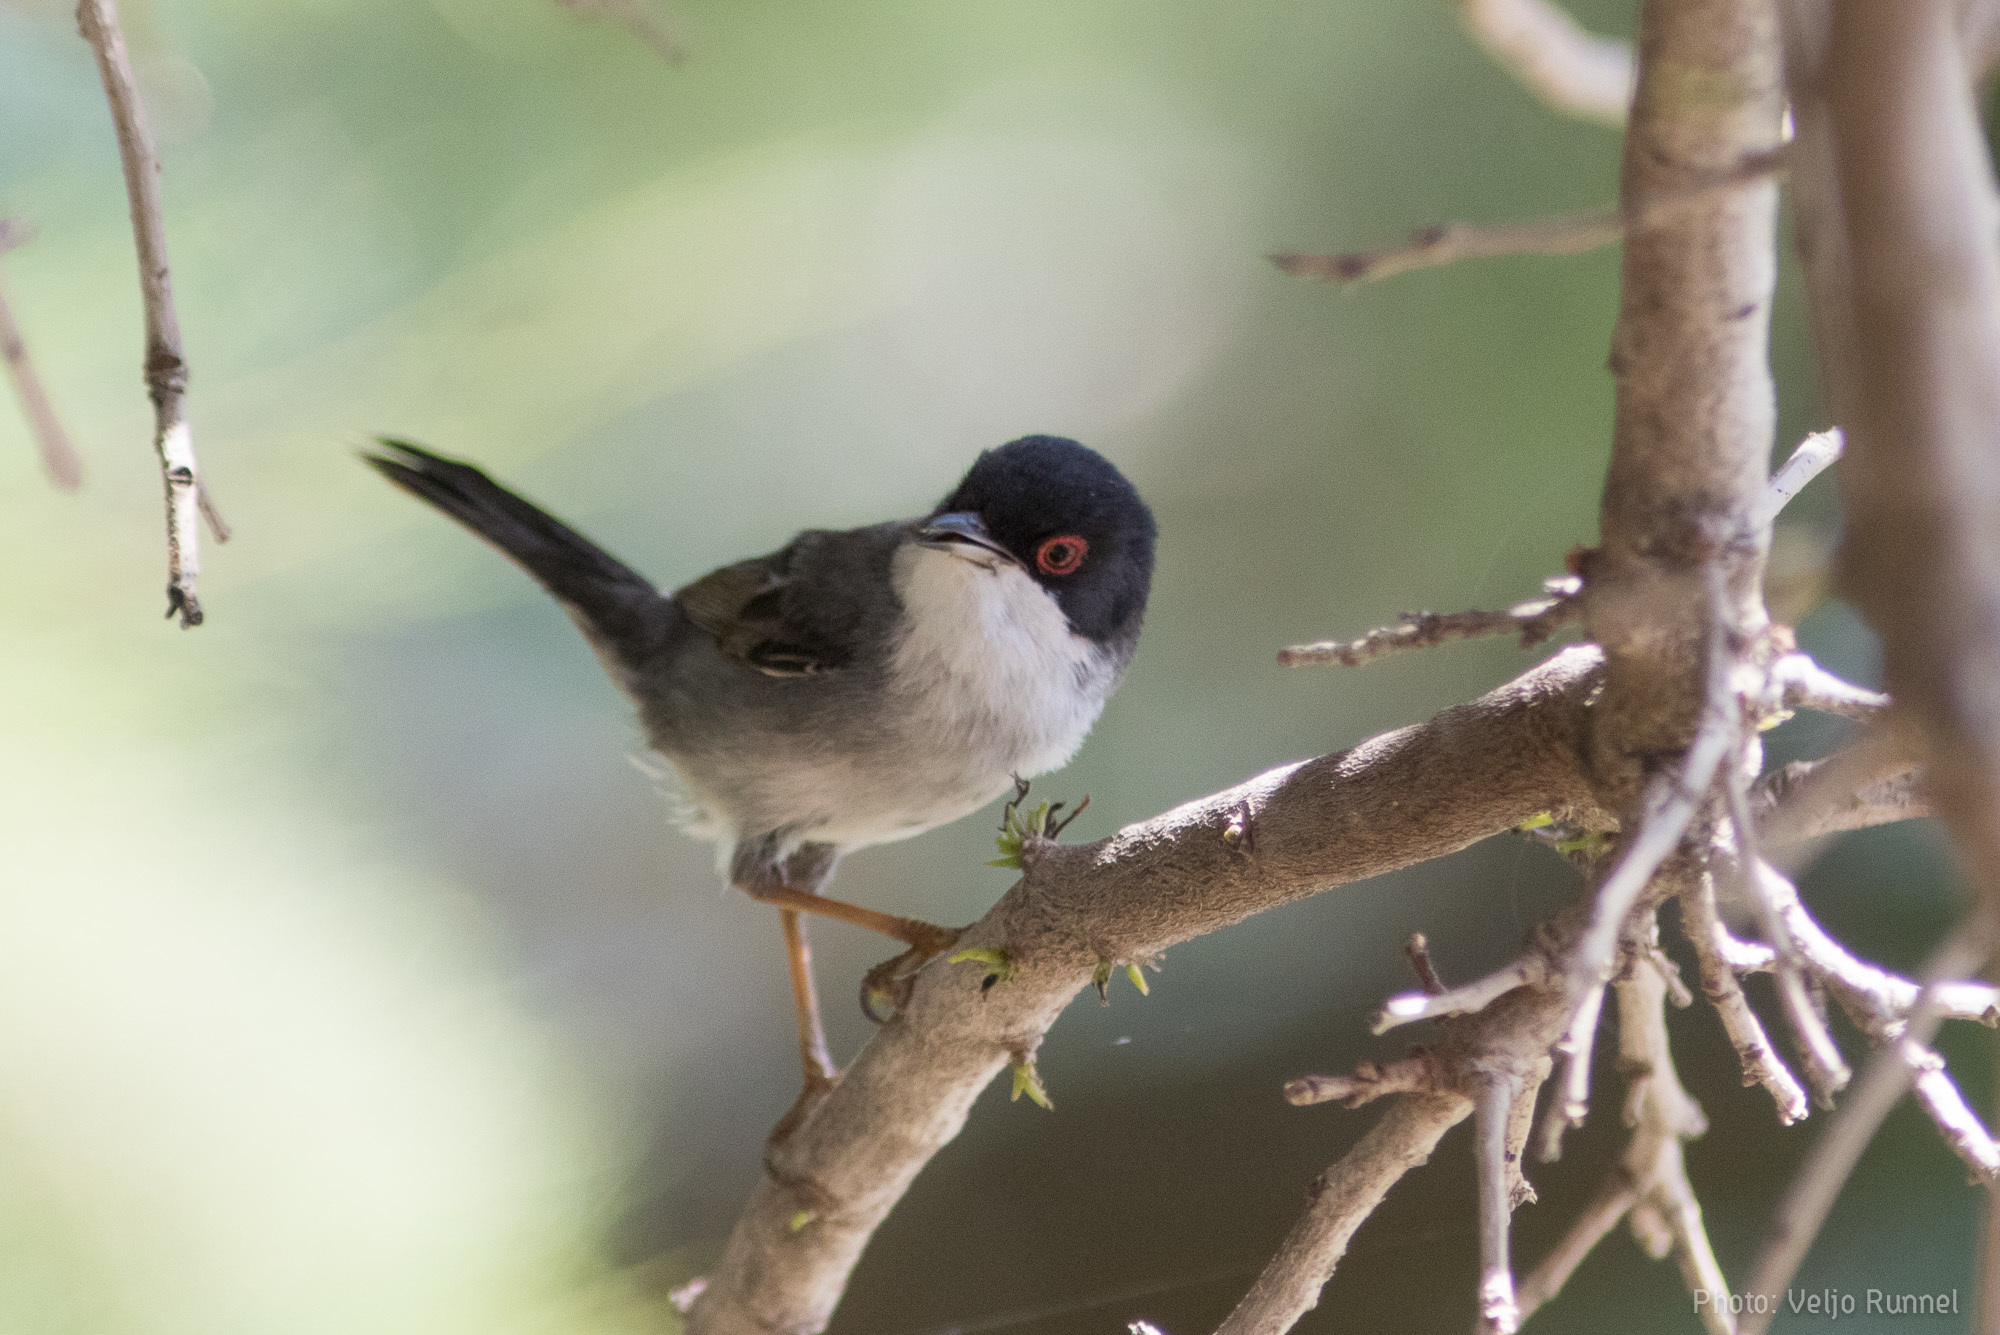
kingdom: Animalia
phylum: Chordata
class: Aves
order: Passeriformes
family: Sylviidae
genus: Curruca
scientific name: Curruca melanocephala
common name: Sardinian warbler
